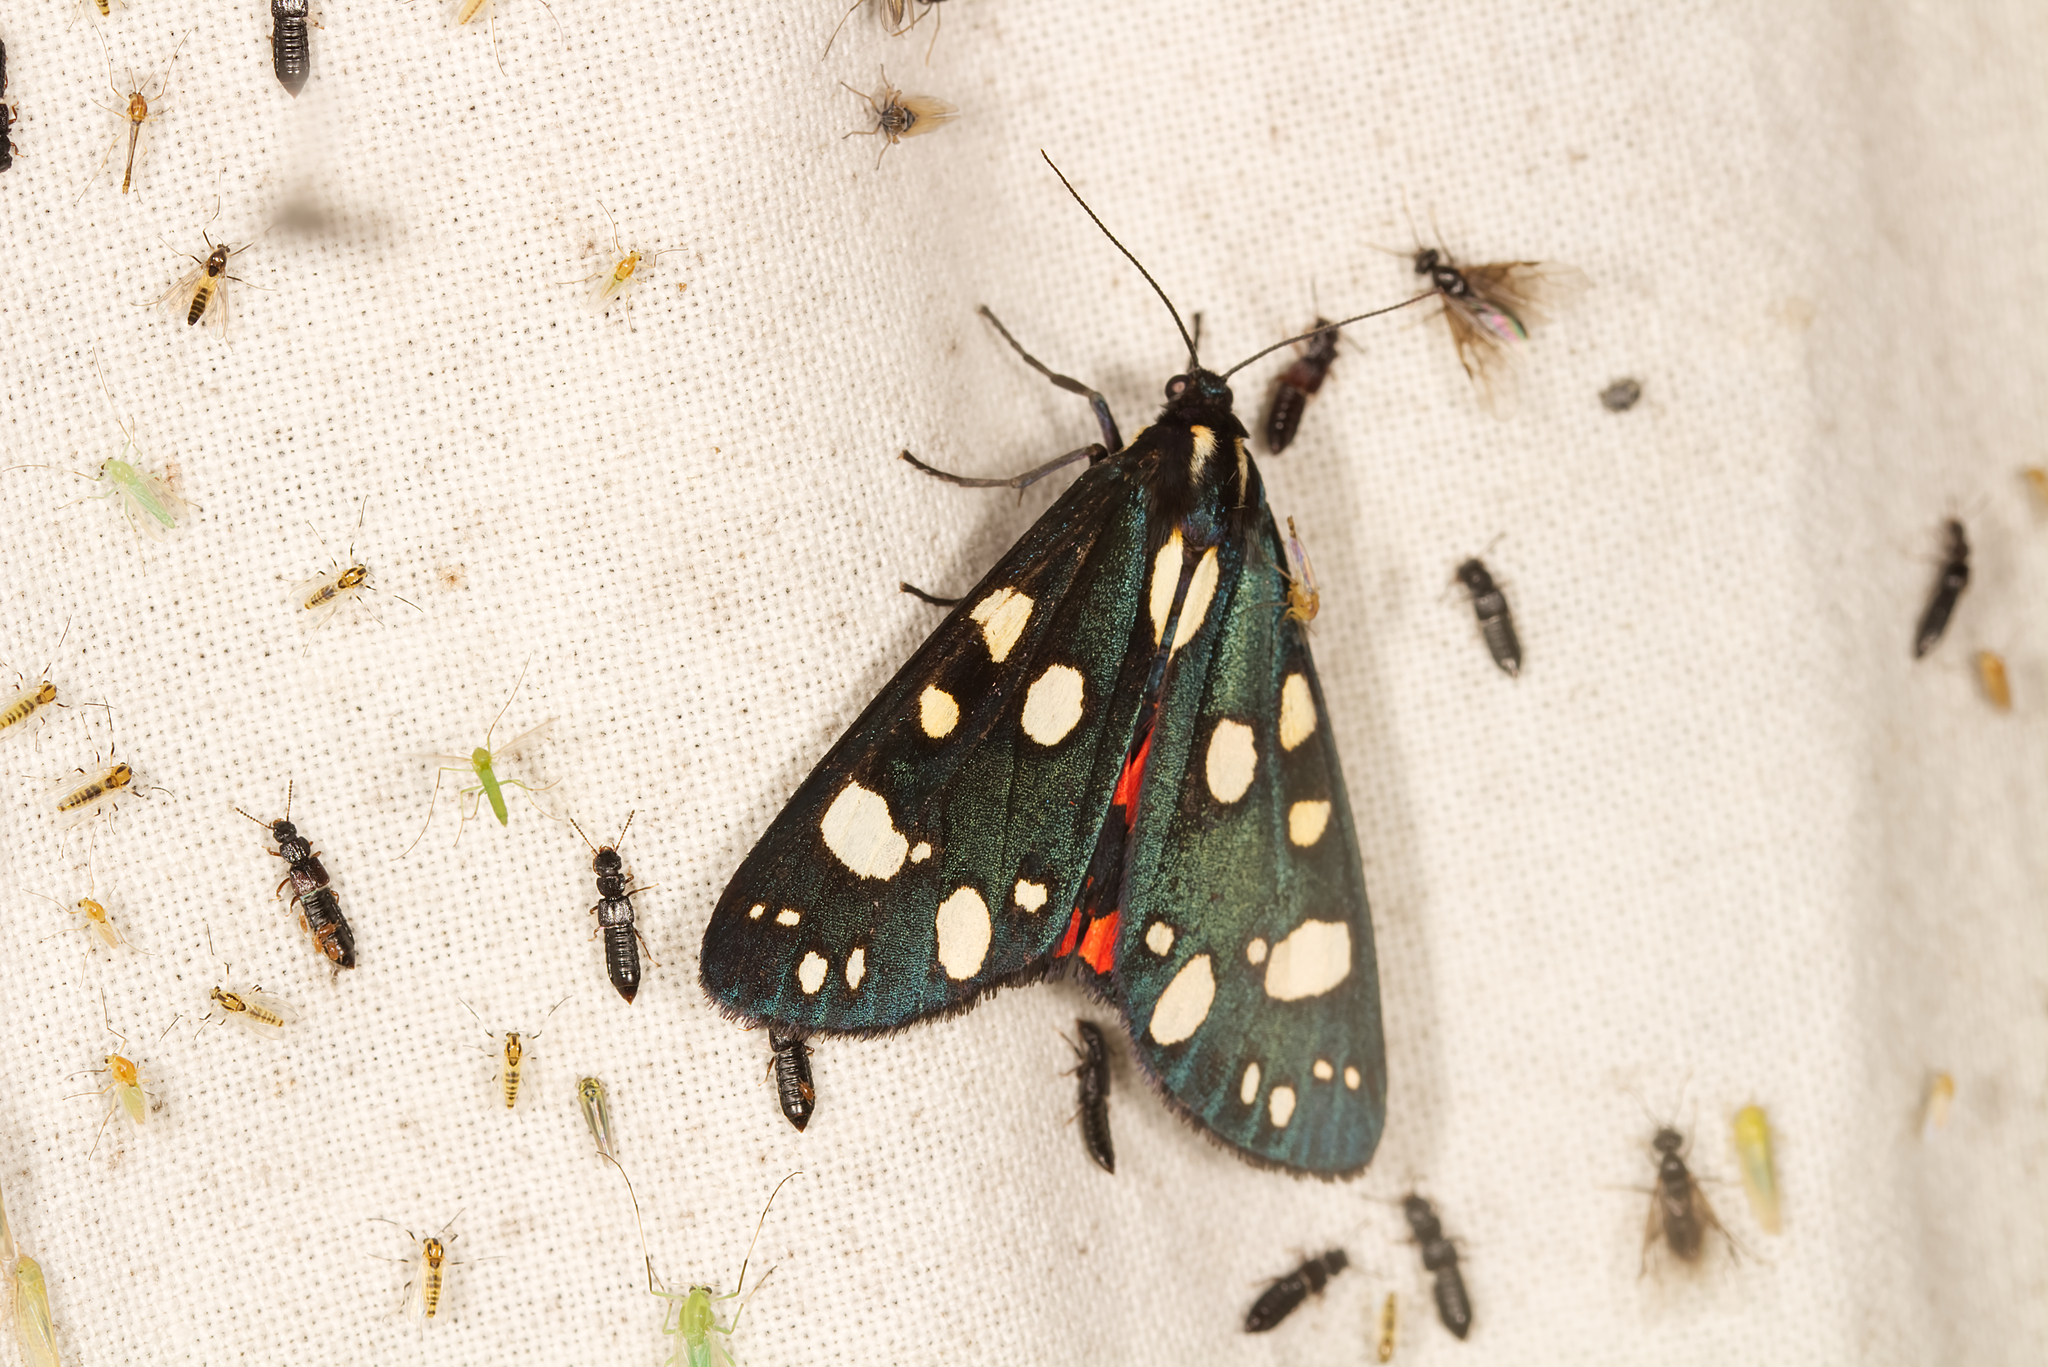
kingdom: Animalia
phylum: Arthropoda
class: Insecta
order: Lepidoptera
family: Erebidae
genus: Callimorpha
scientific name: Callimorpha dominula
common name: Scarlet tiger
